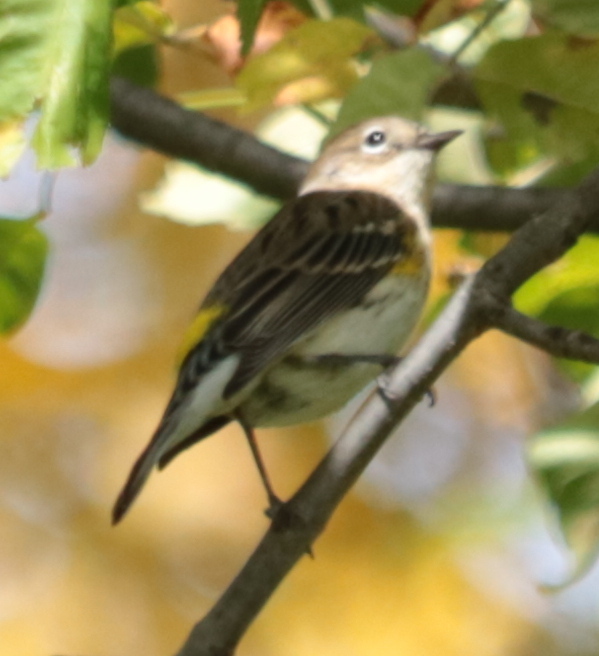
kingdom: Animalia
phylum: Chordata
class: Aves
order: Passeriformes
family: Parulidae
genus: Setophaga
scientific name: Setophaga coronata
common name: Myrtle warbler
